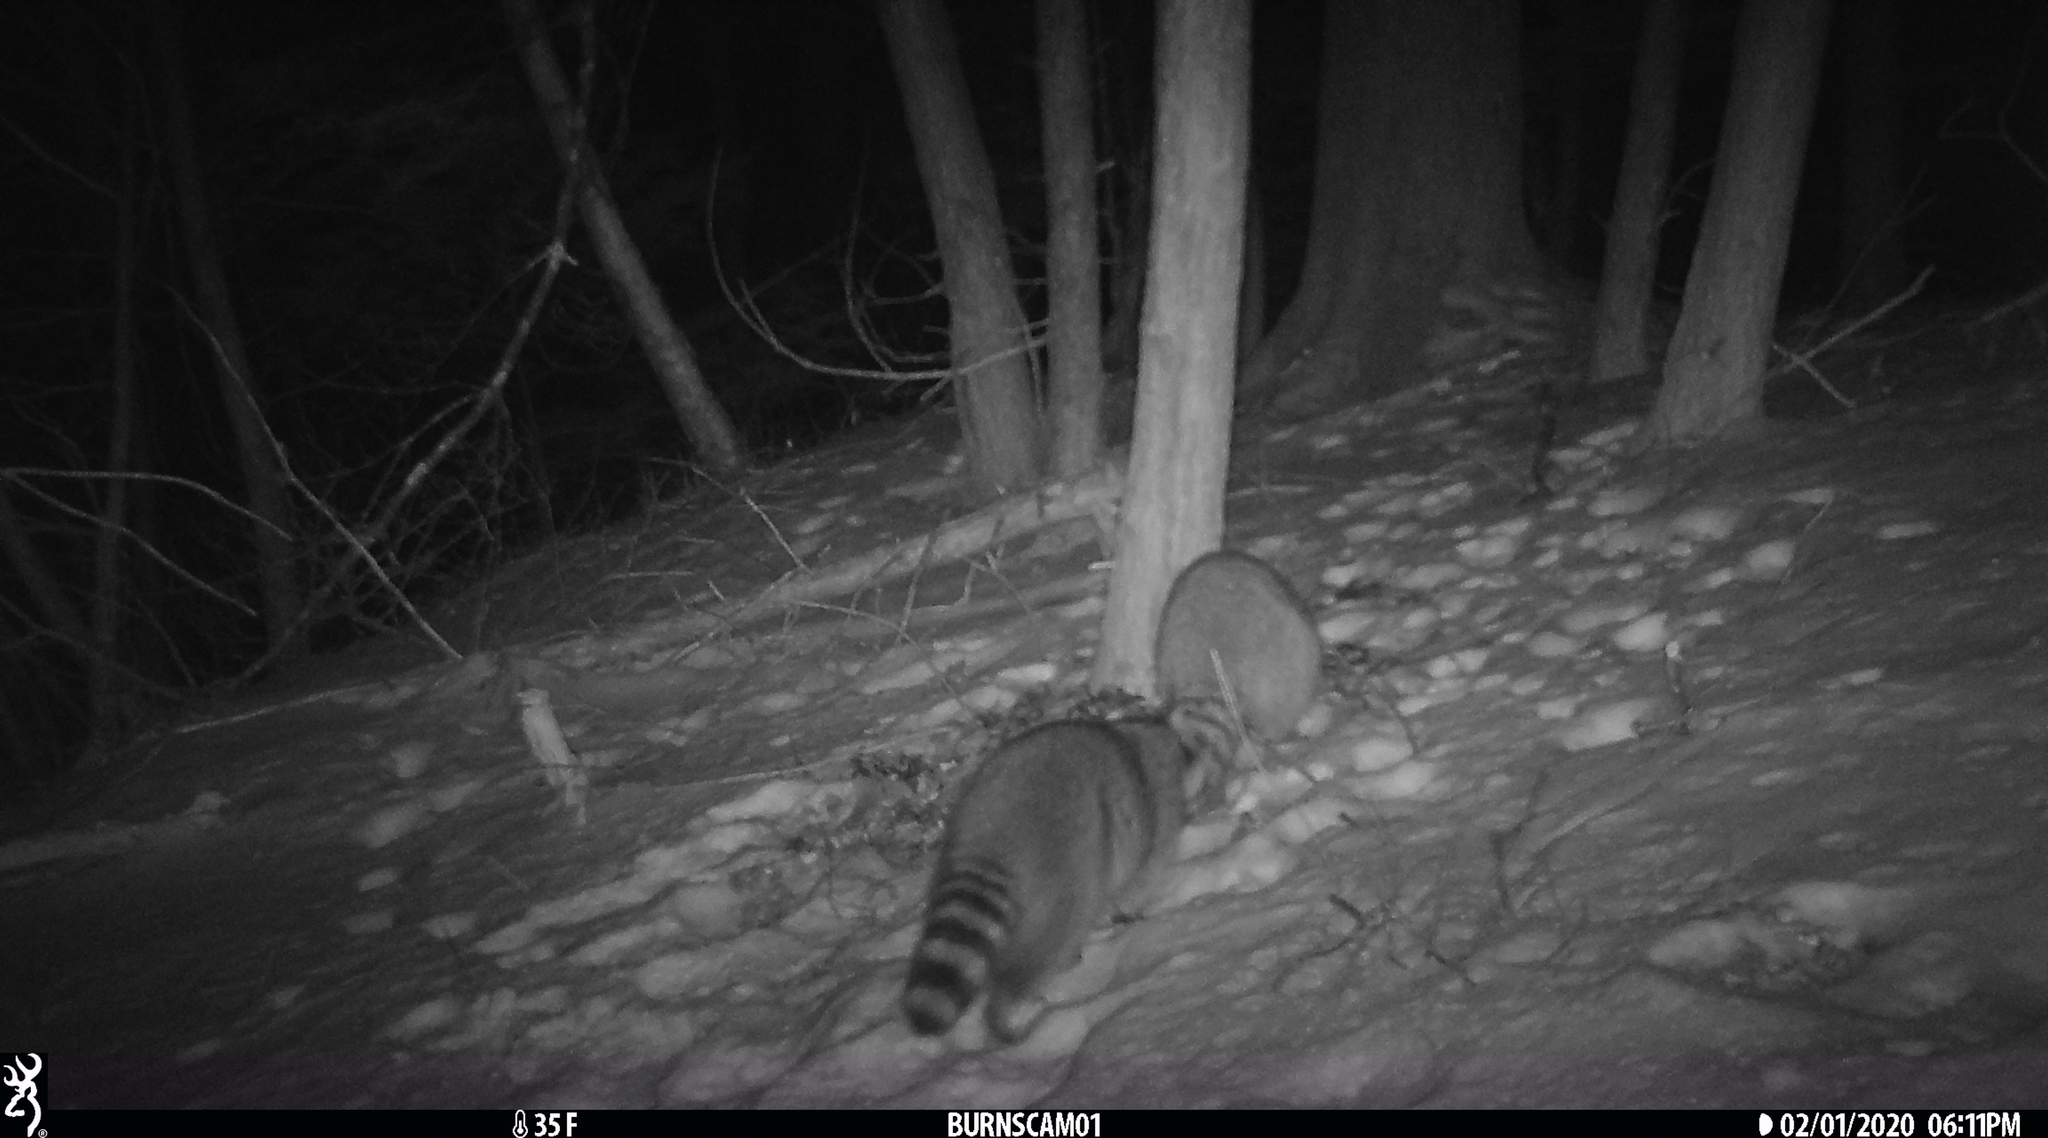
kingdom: Animalia
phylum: Chordata
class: Mammalia
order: Carnivora
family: Procyonidae
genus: Procyon
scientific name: Procyon lotor
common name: Raccoon
